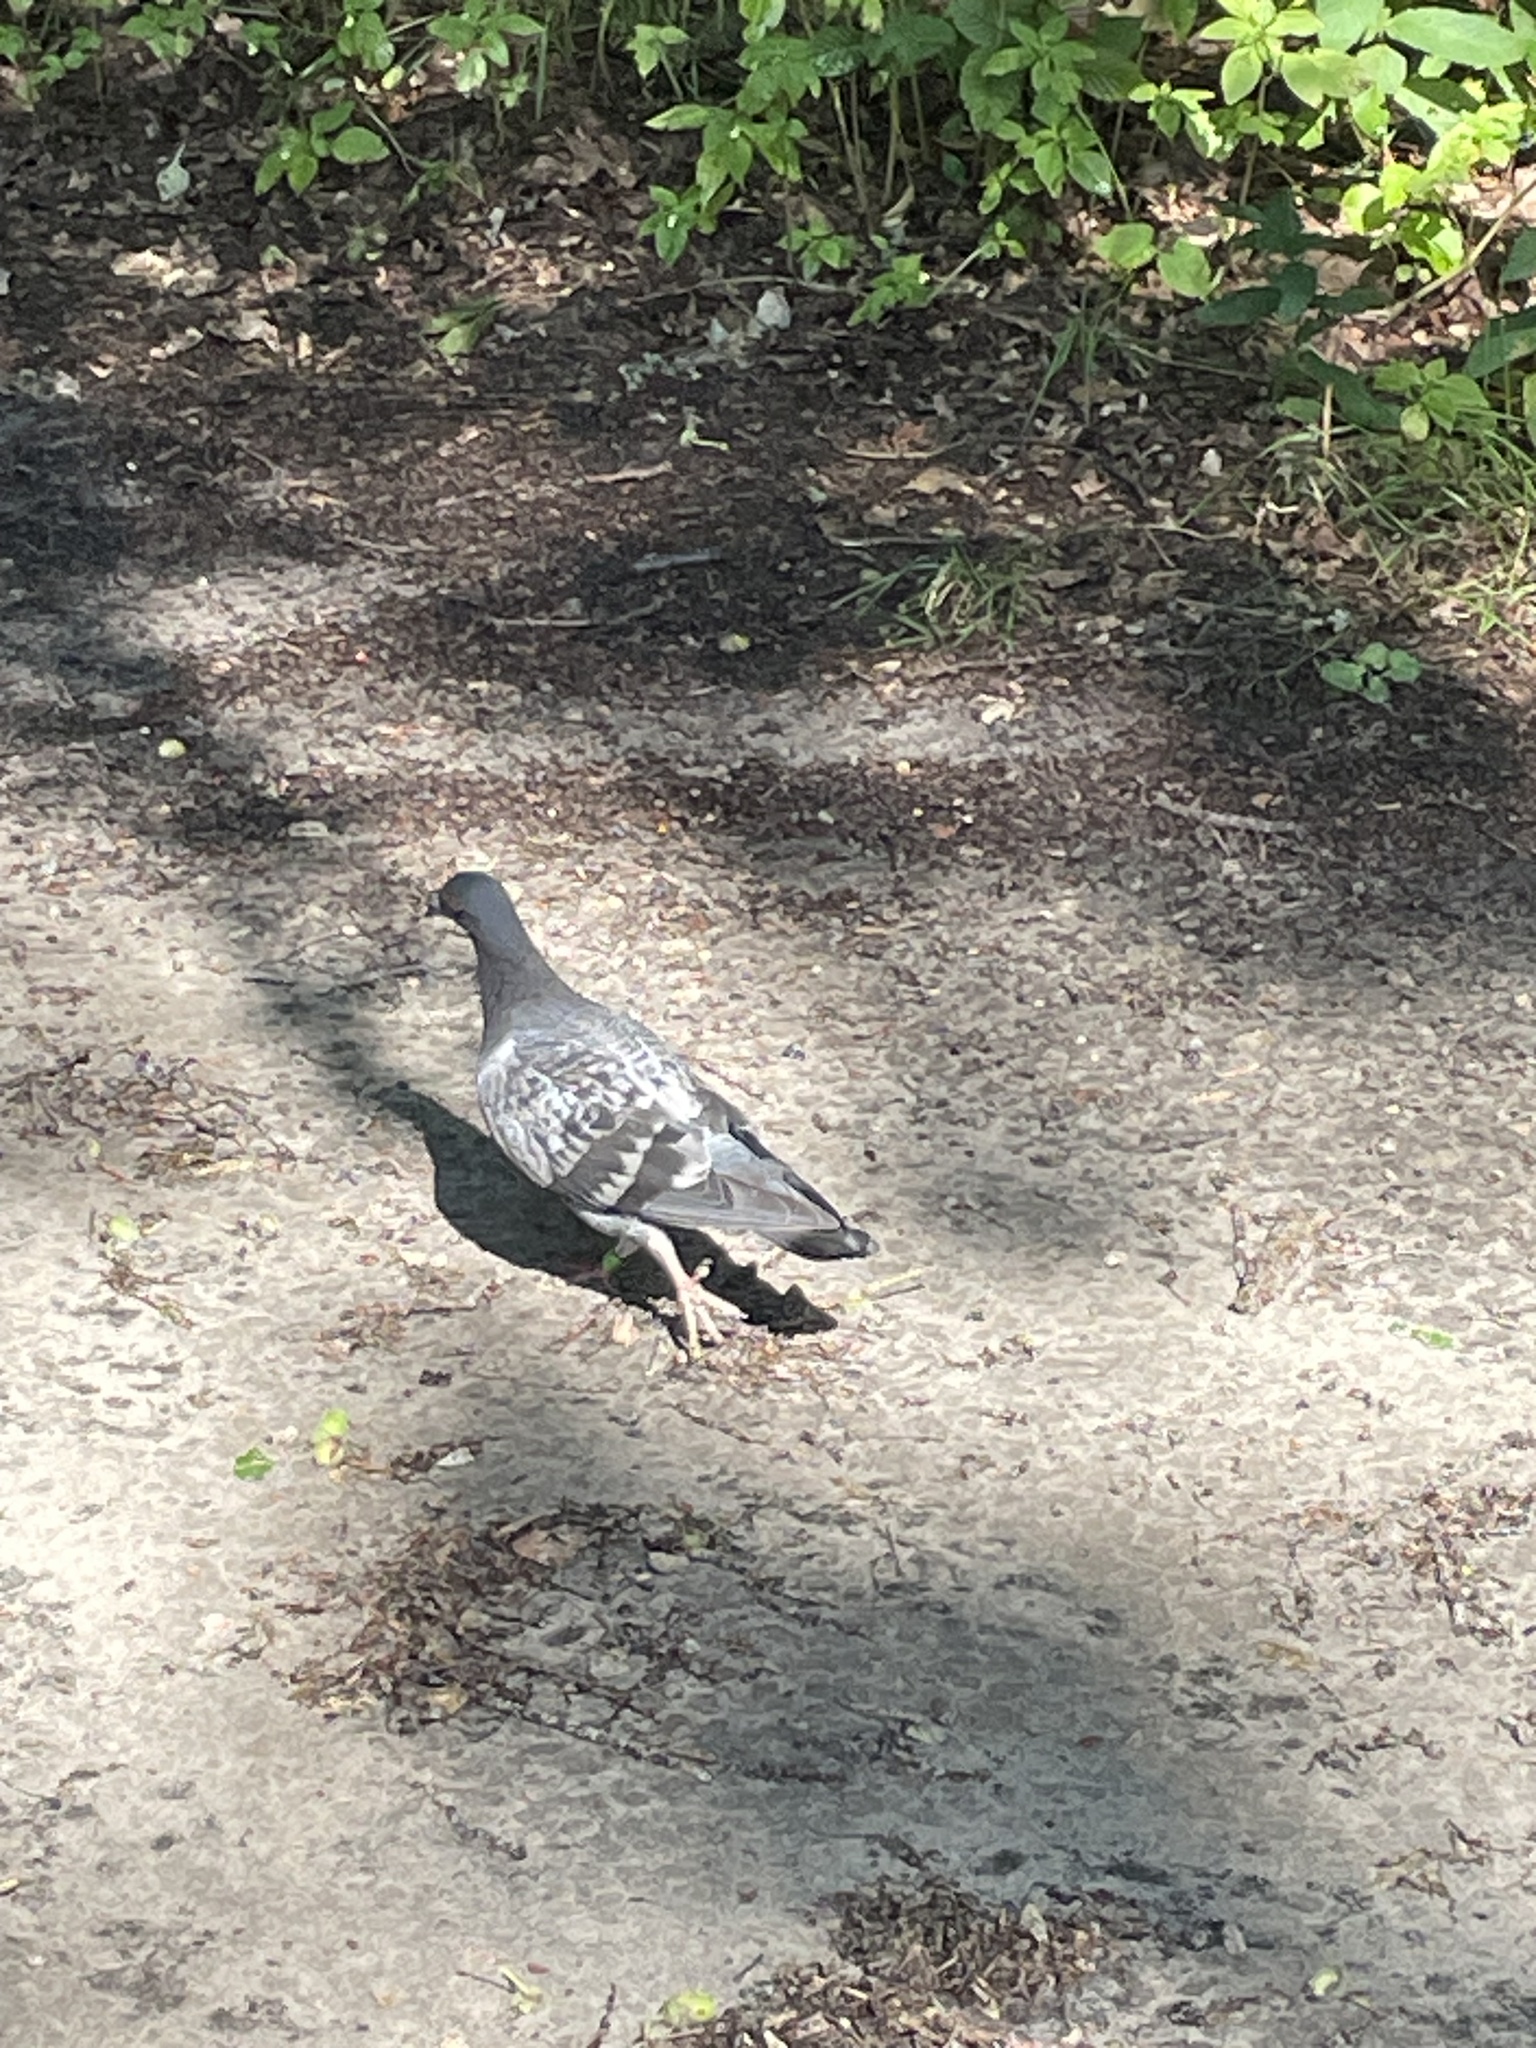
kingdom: Animalia
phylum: Chordata
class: Aves
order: Columbiformes
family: Columbidae
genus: Columba
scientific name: Columba livia
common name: Rock pigeon
